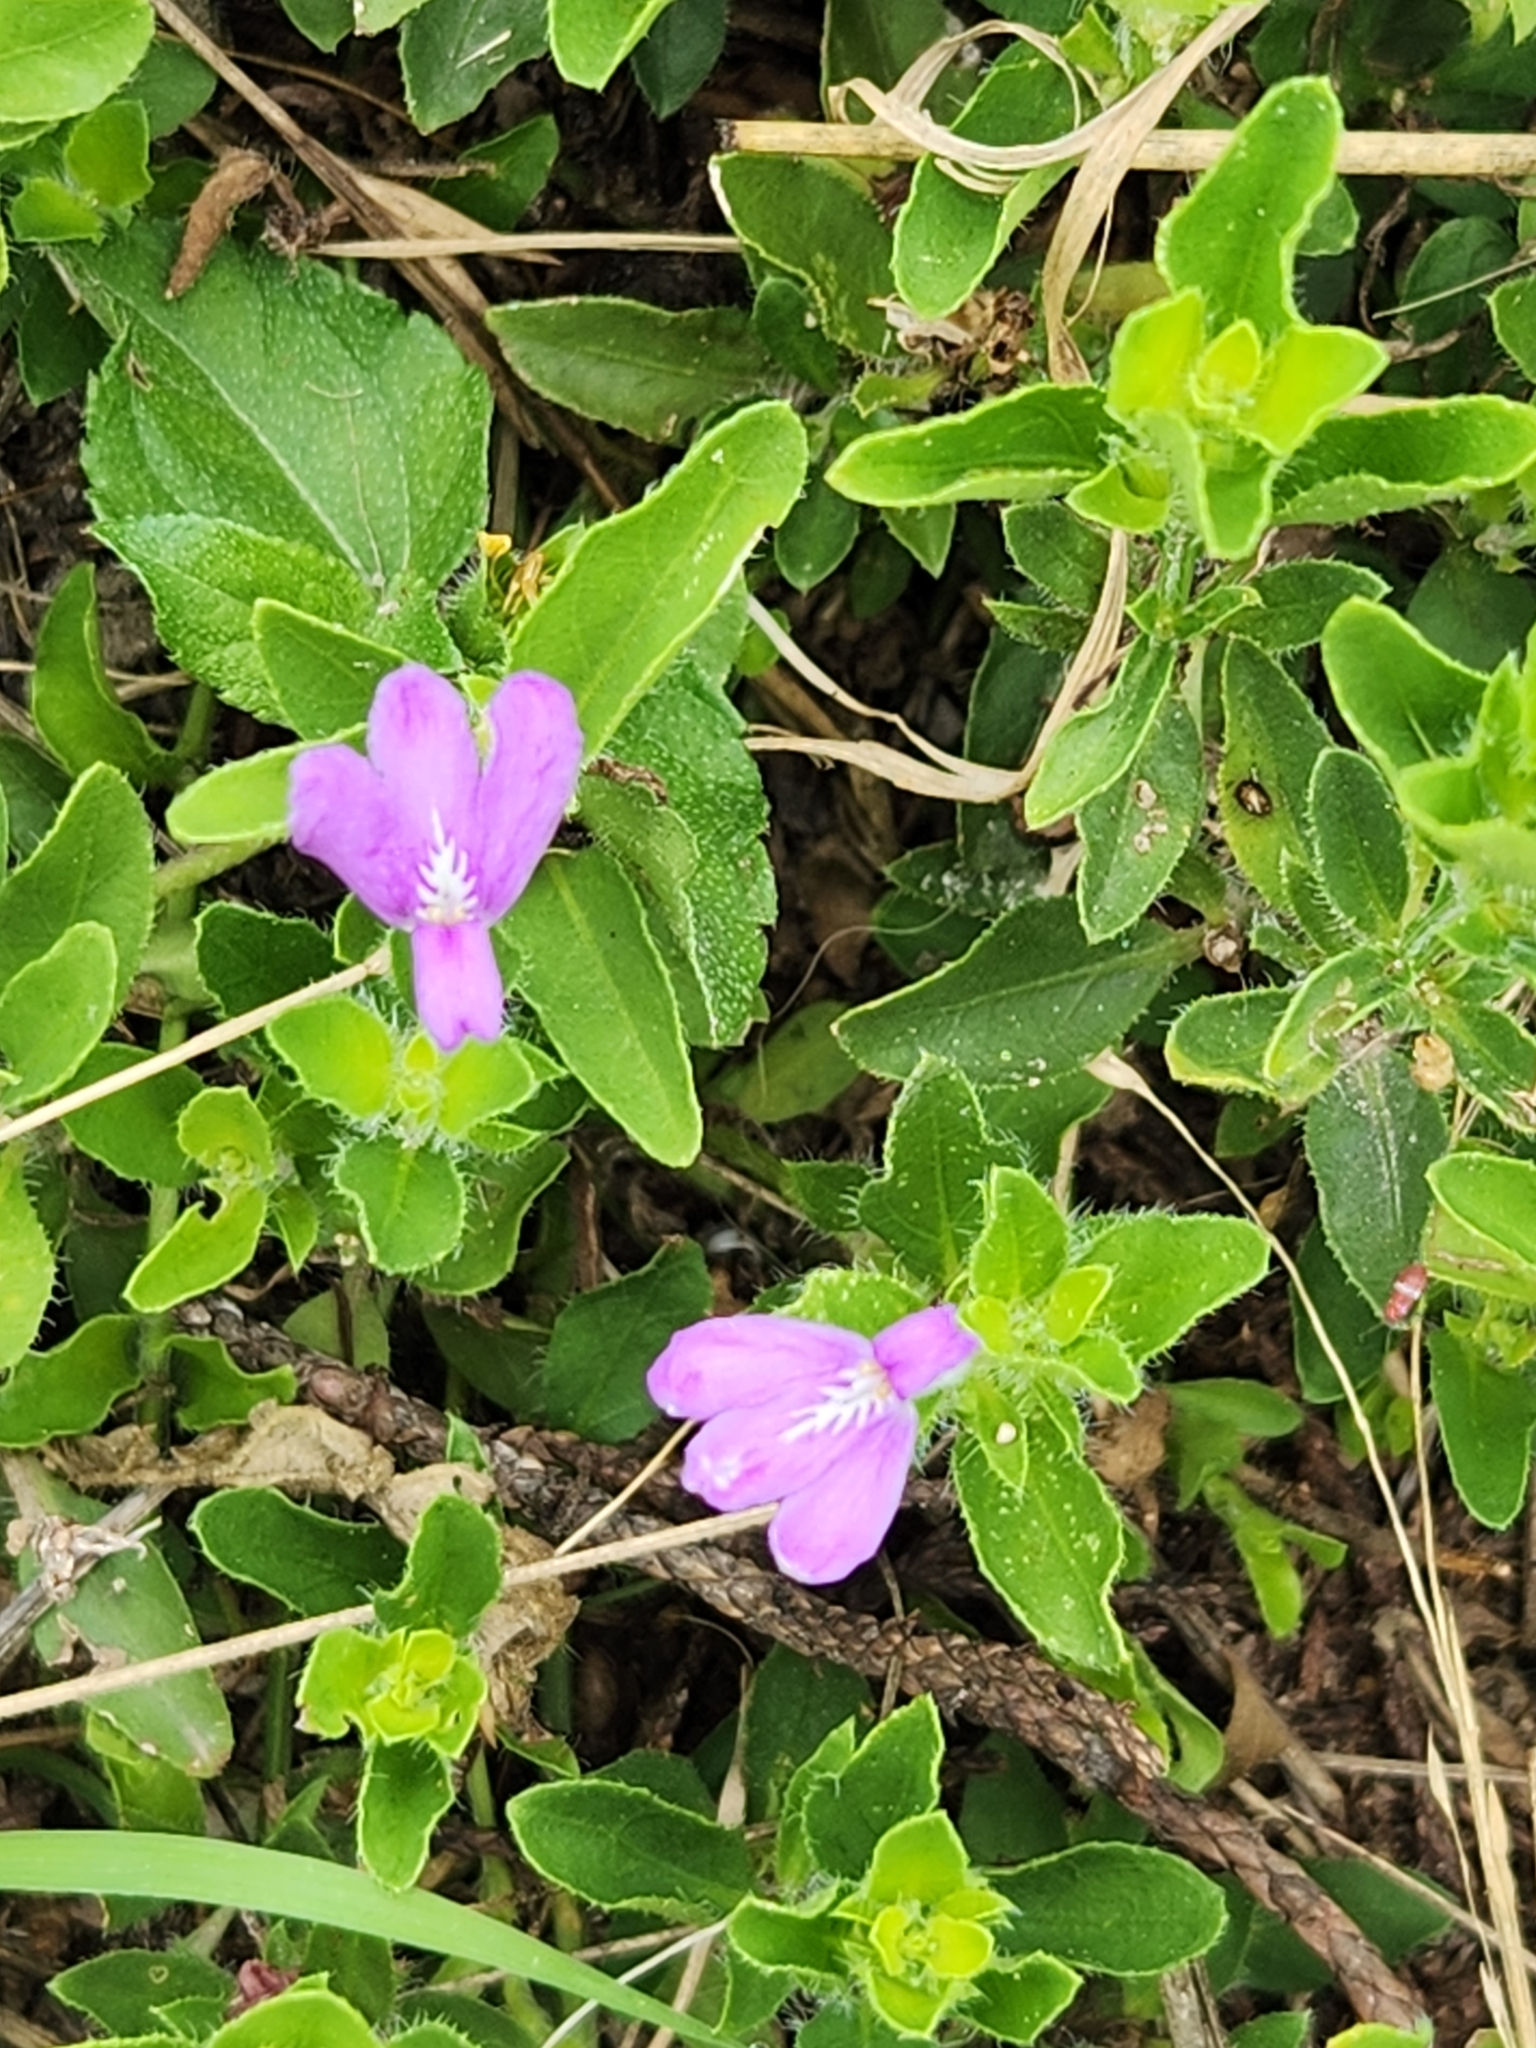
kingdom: Plantae
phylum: Tracheophyta
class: Magnoliopsida
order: Lamiales
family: Acanthaceae
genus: Justicia
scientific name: Justicia pilosella
